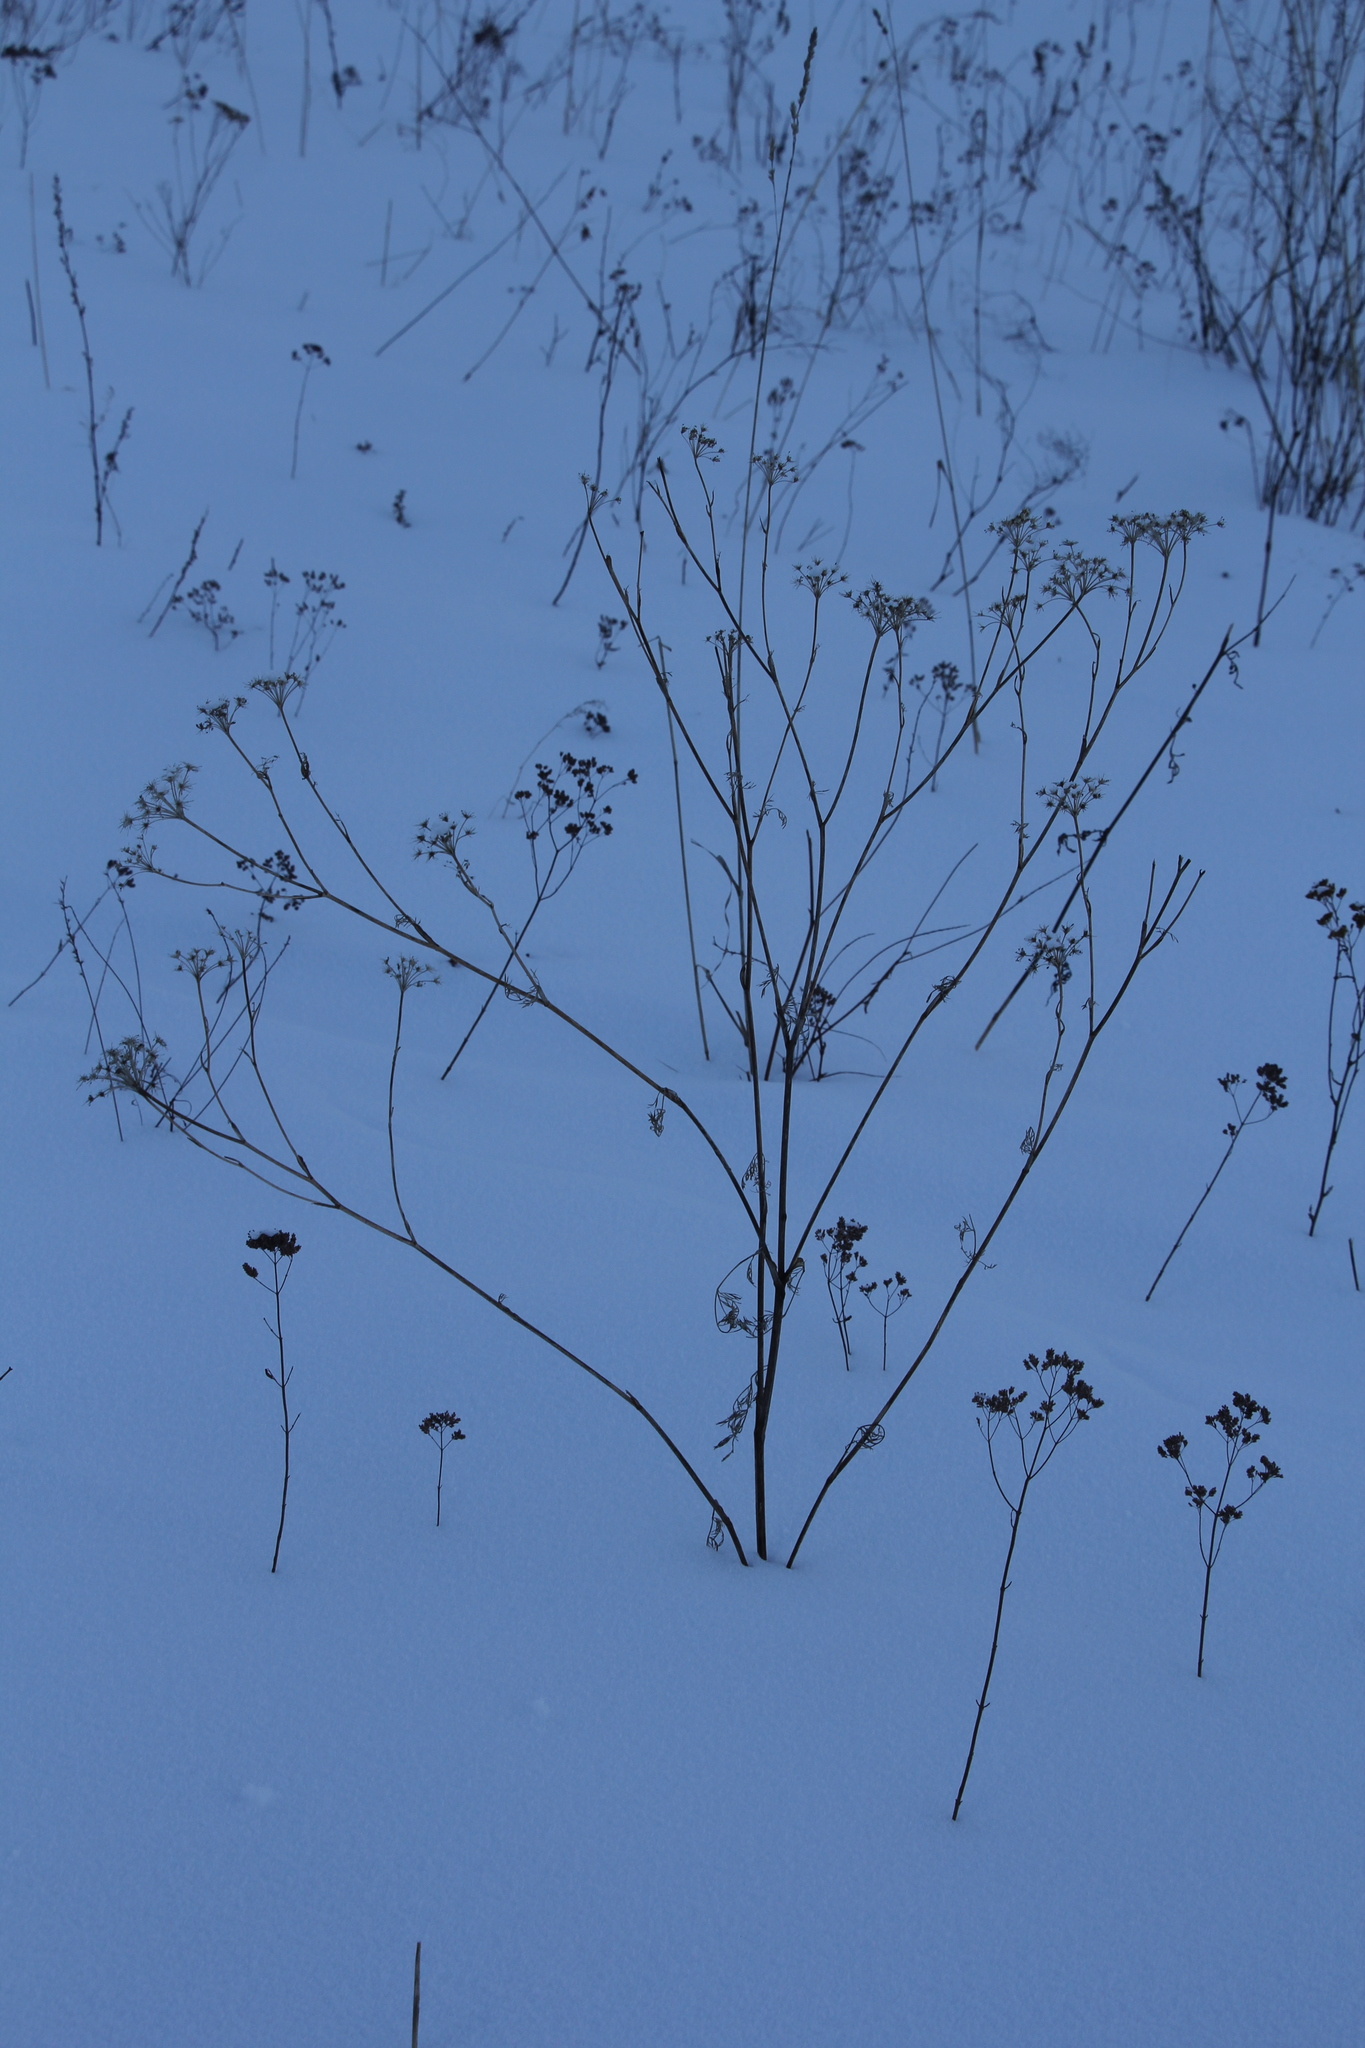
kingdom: Plantae
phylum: Tracheophyta
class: Magnoliopsida
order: Apiales
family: Apiaceae
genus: Peucedanum
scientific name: Peucedanum morisonii
